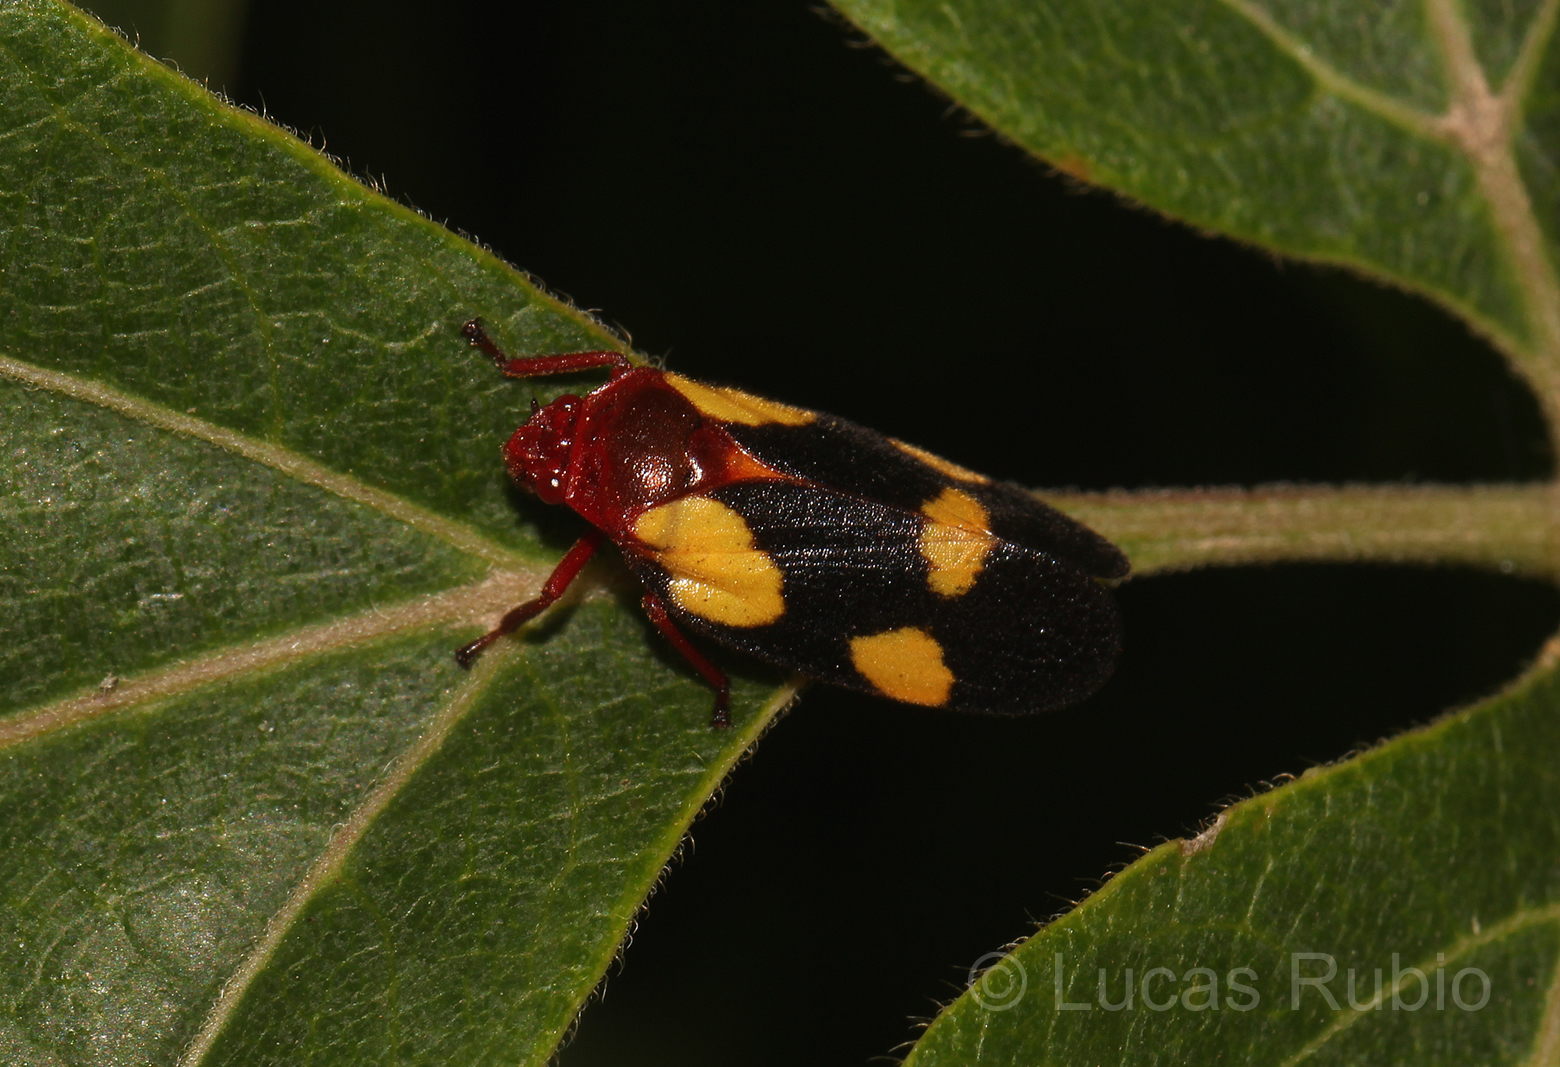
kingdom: Animalia
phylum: Arthropoda
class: Insecta
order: Hemiptera
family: Cercopidae
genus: Sphenorhina
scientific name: Sphenorhina limbata
